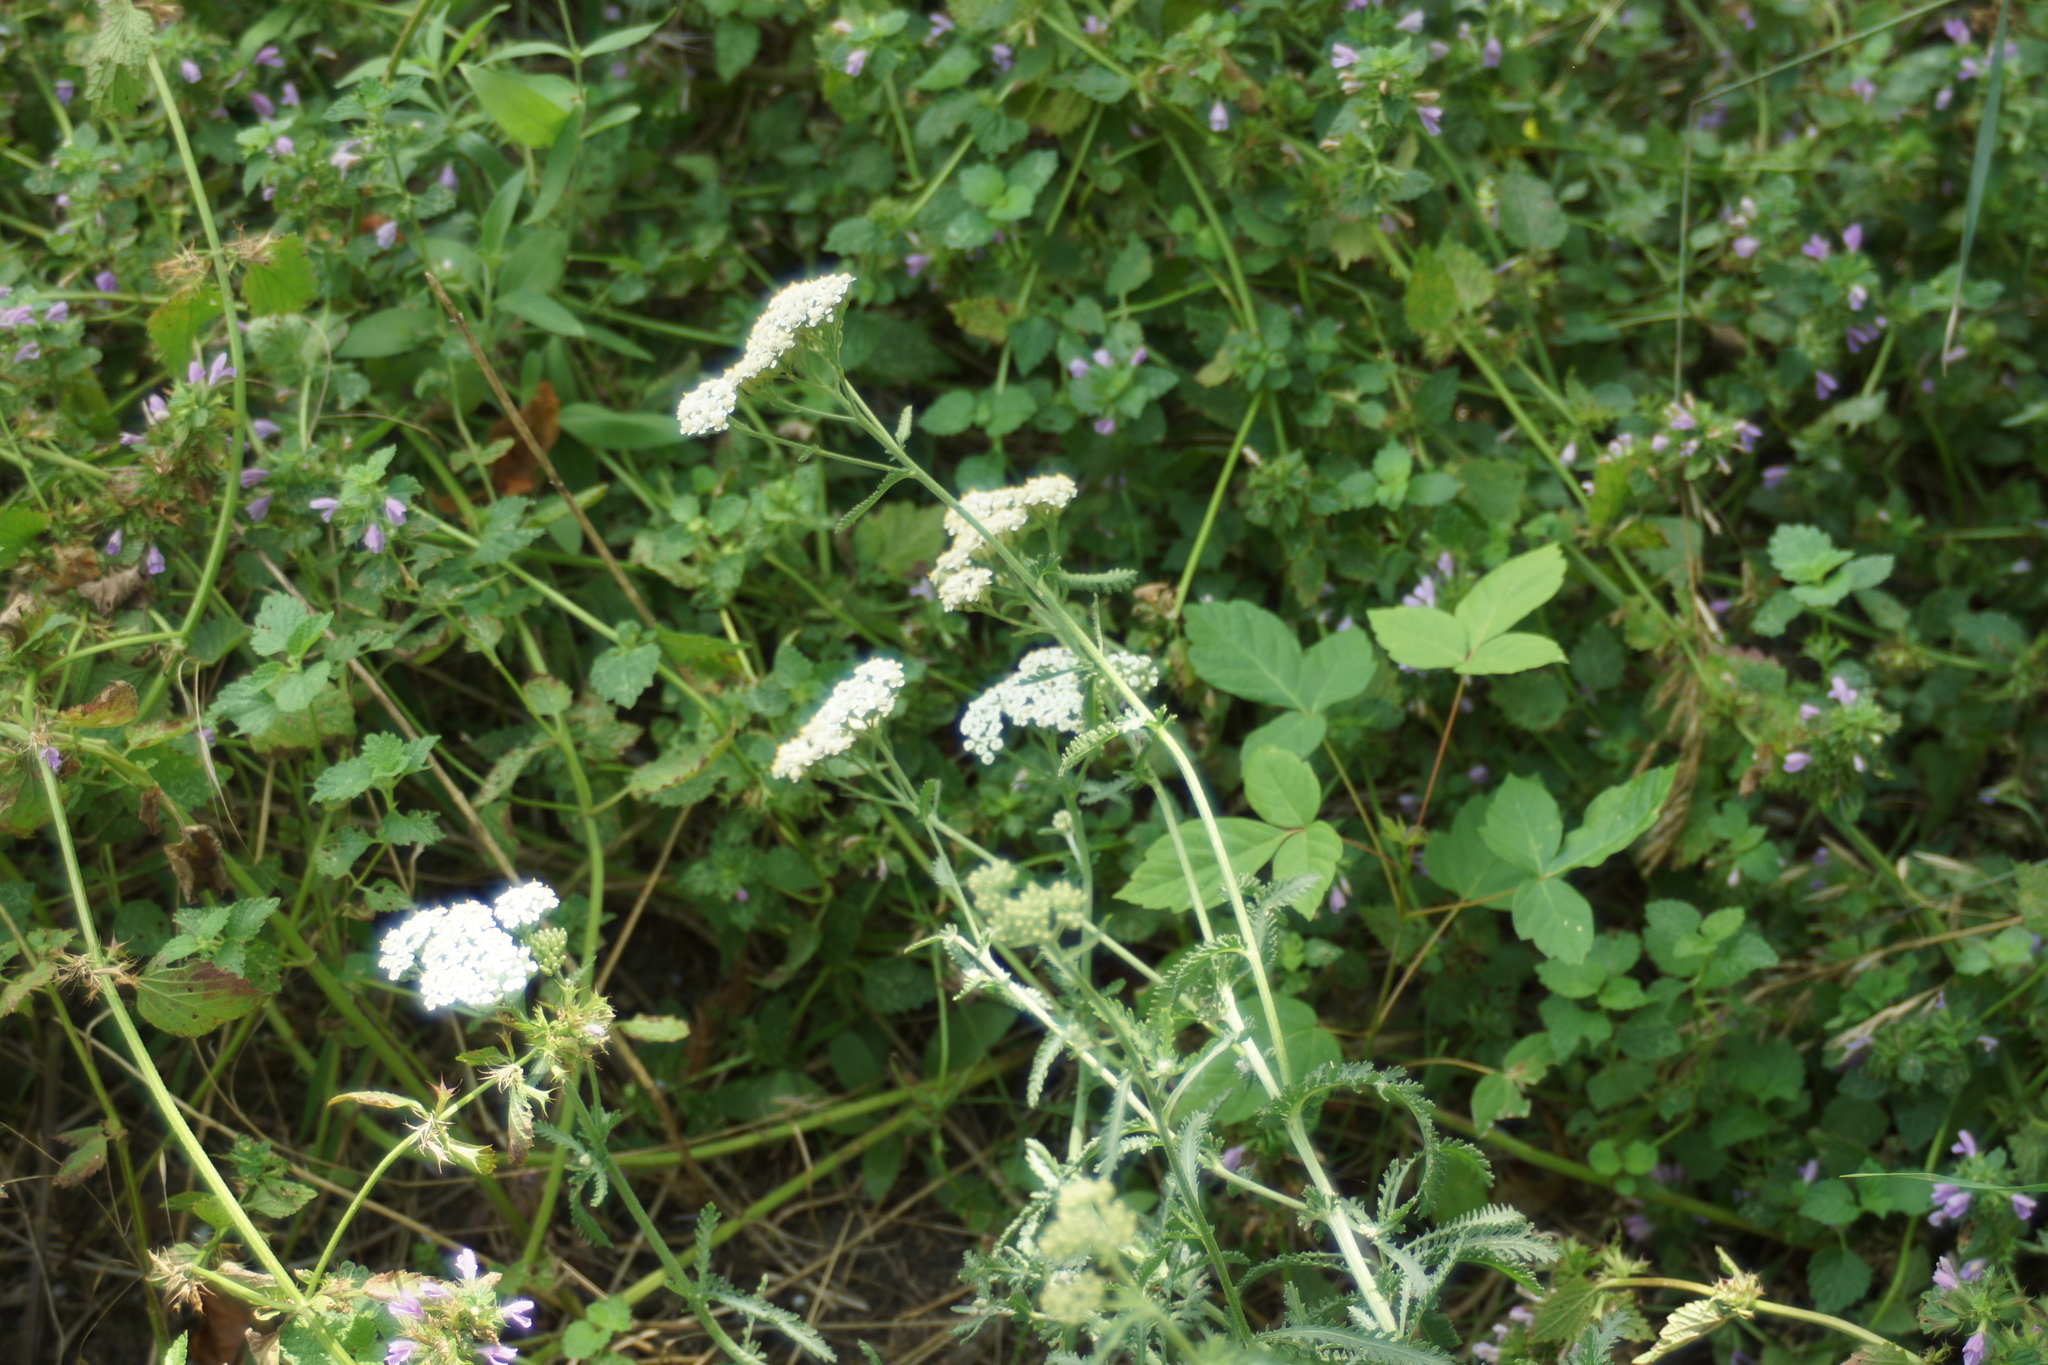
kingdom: Plantae
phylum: Tracheophyta
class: Magnoliopsida
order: Asterales
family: Asteraceae
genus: Achillea
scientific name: Achillea millefolium
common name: Yarrow
